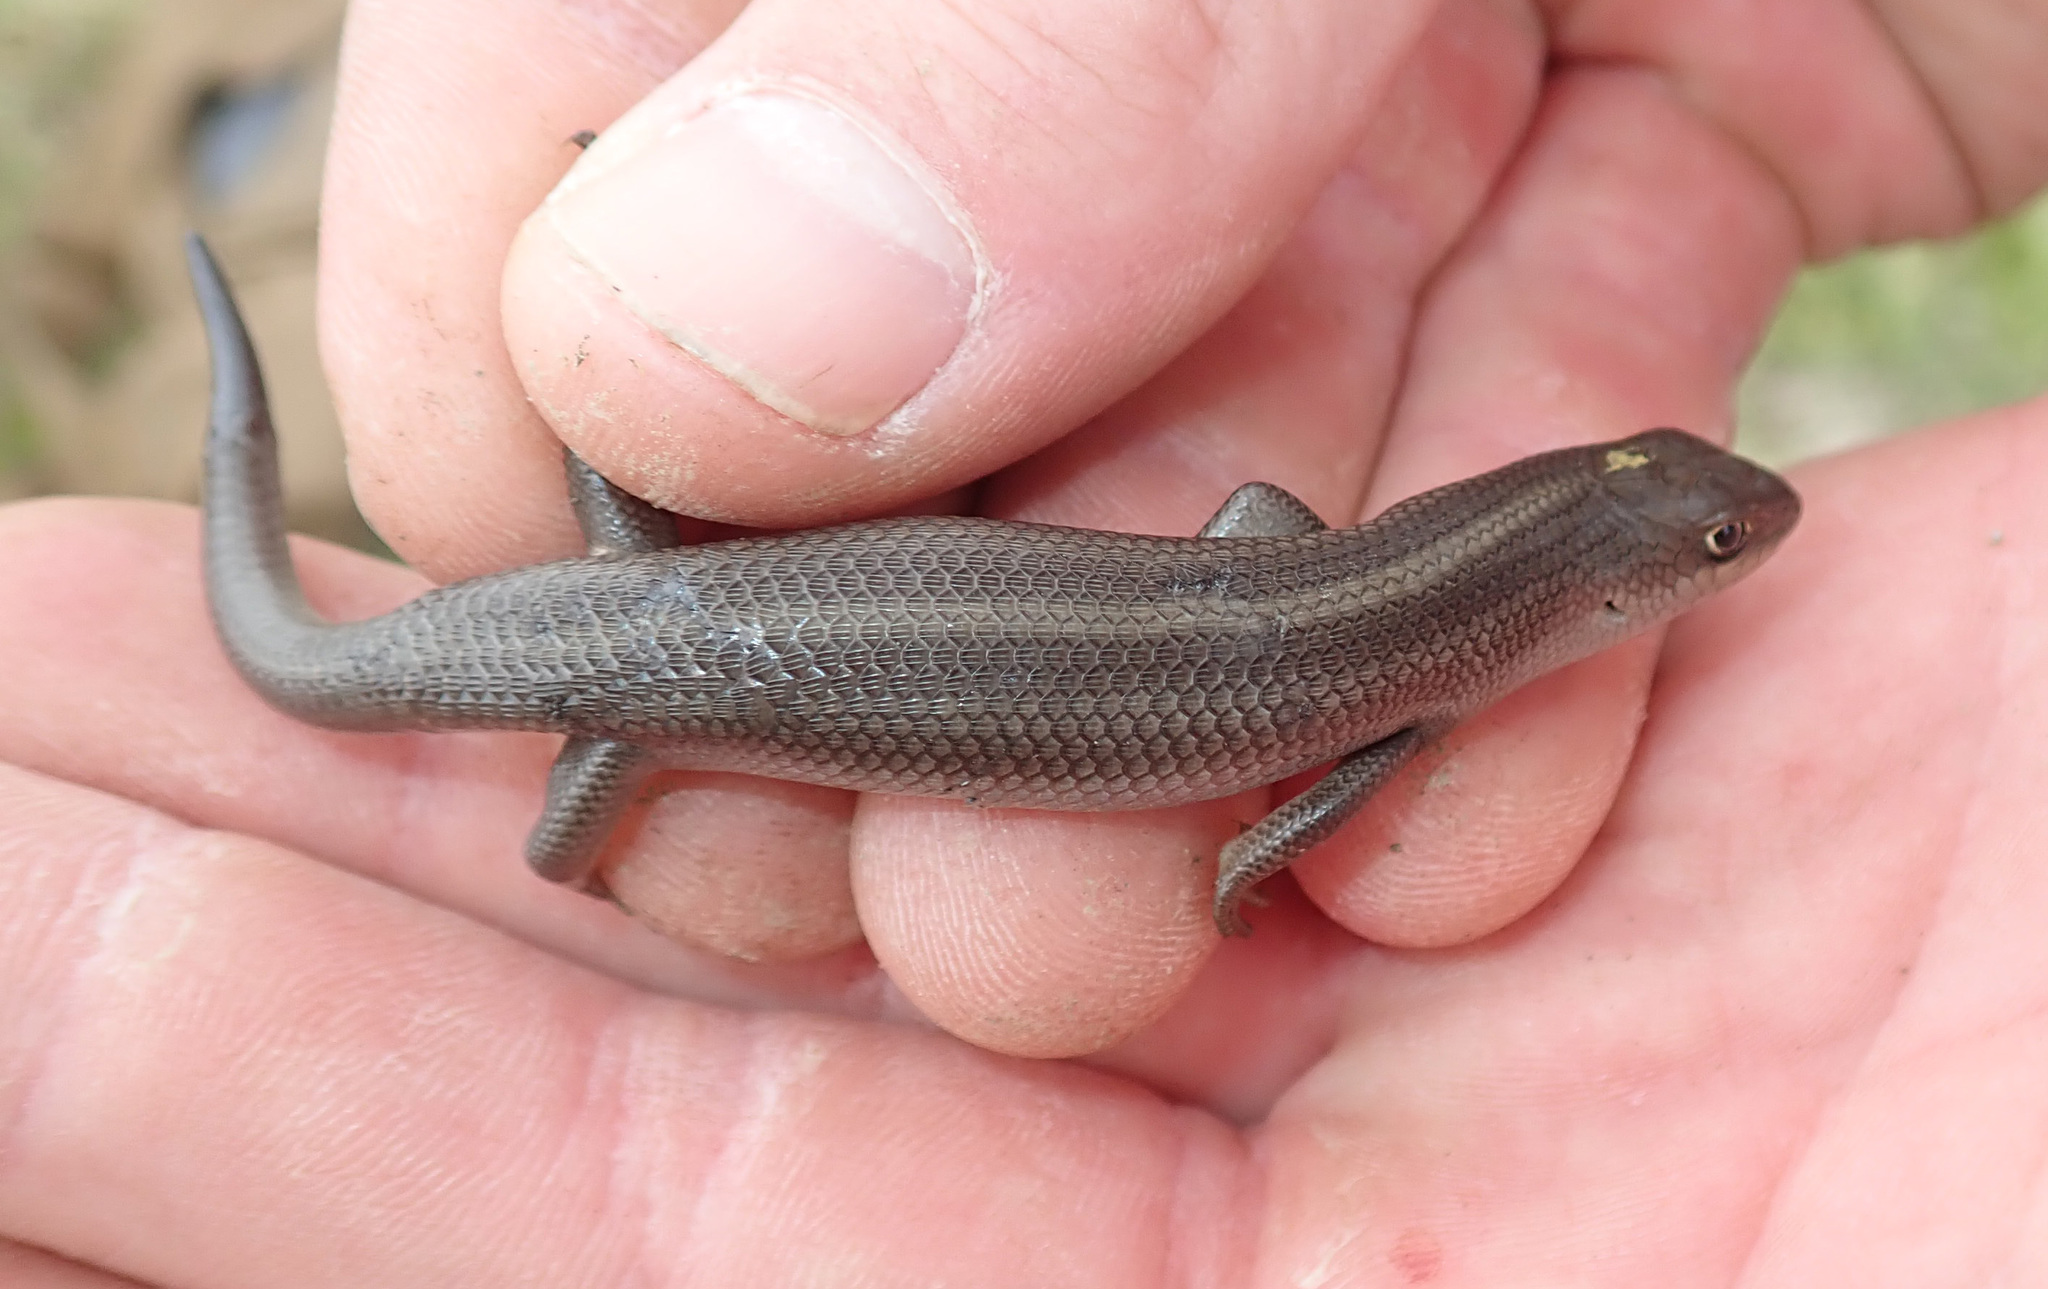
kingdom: Animalia
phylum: Chordata
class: Squamata
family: Scincidae
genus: Trachylepis
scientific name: Trachylepis capensis
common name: Cape skink
